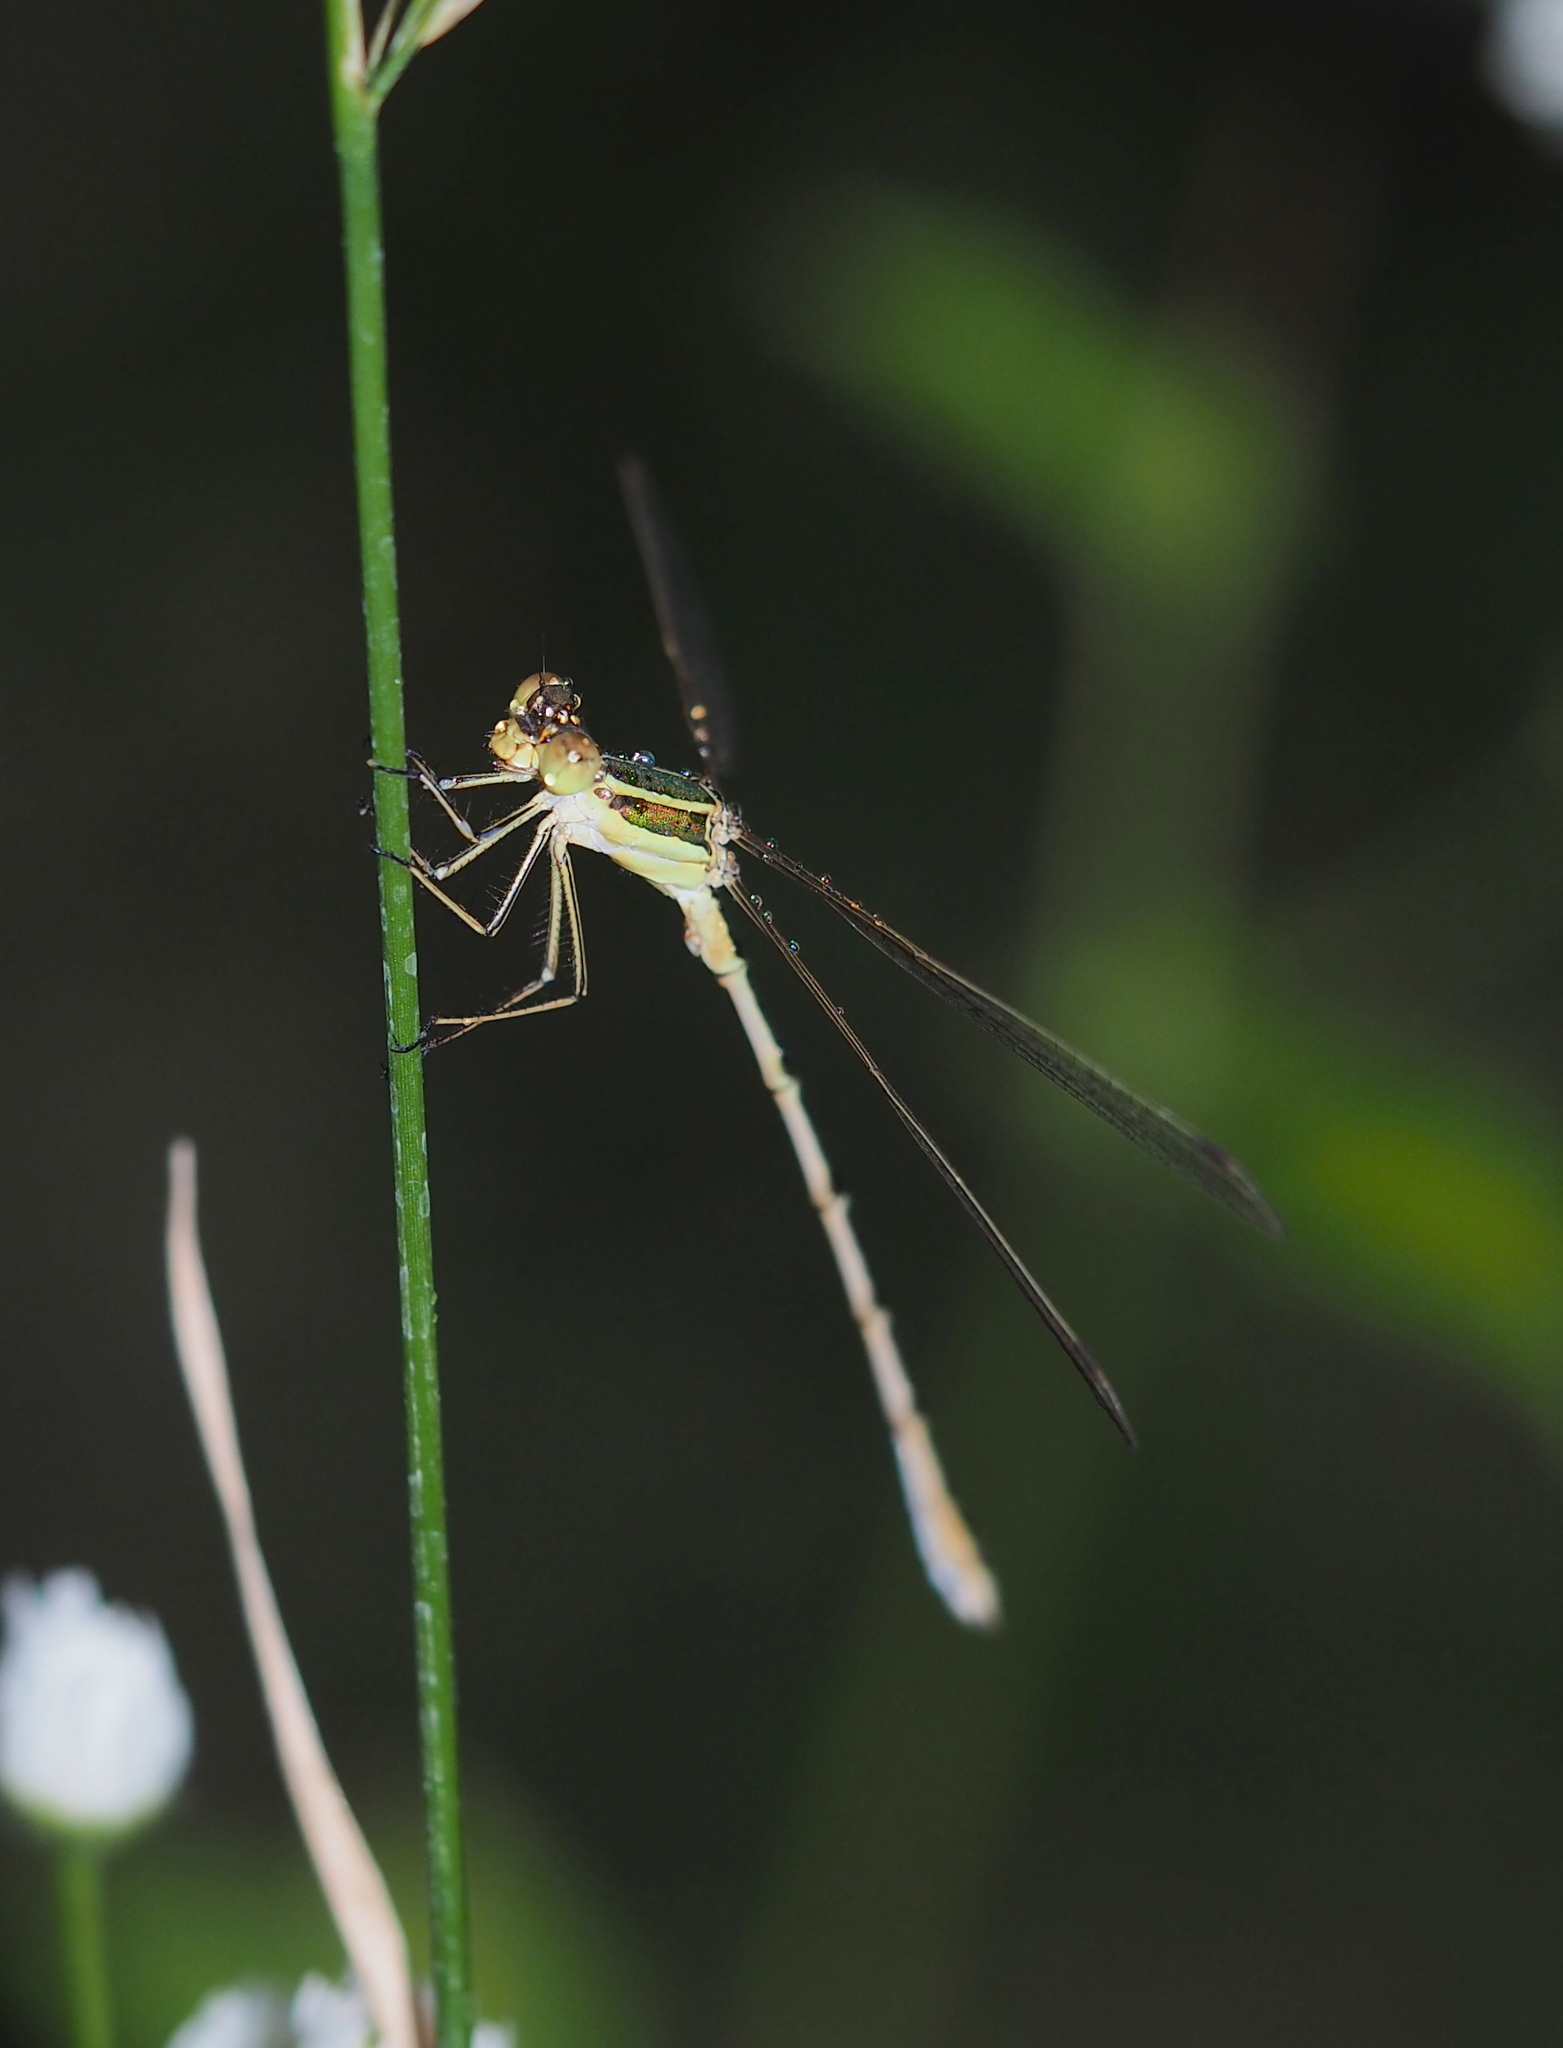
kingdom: Animalia
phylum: Arthropoda
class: Insecta
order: Odonata
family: Lestidae
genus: Lestes
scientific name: Lestes barbarus
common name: Migrant spreadwing
